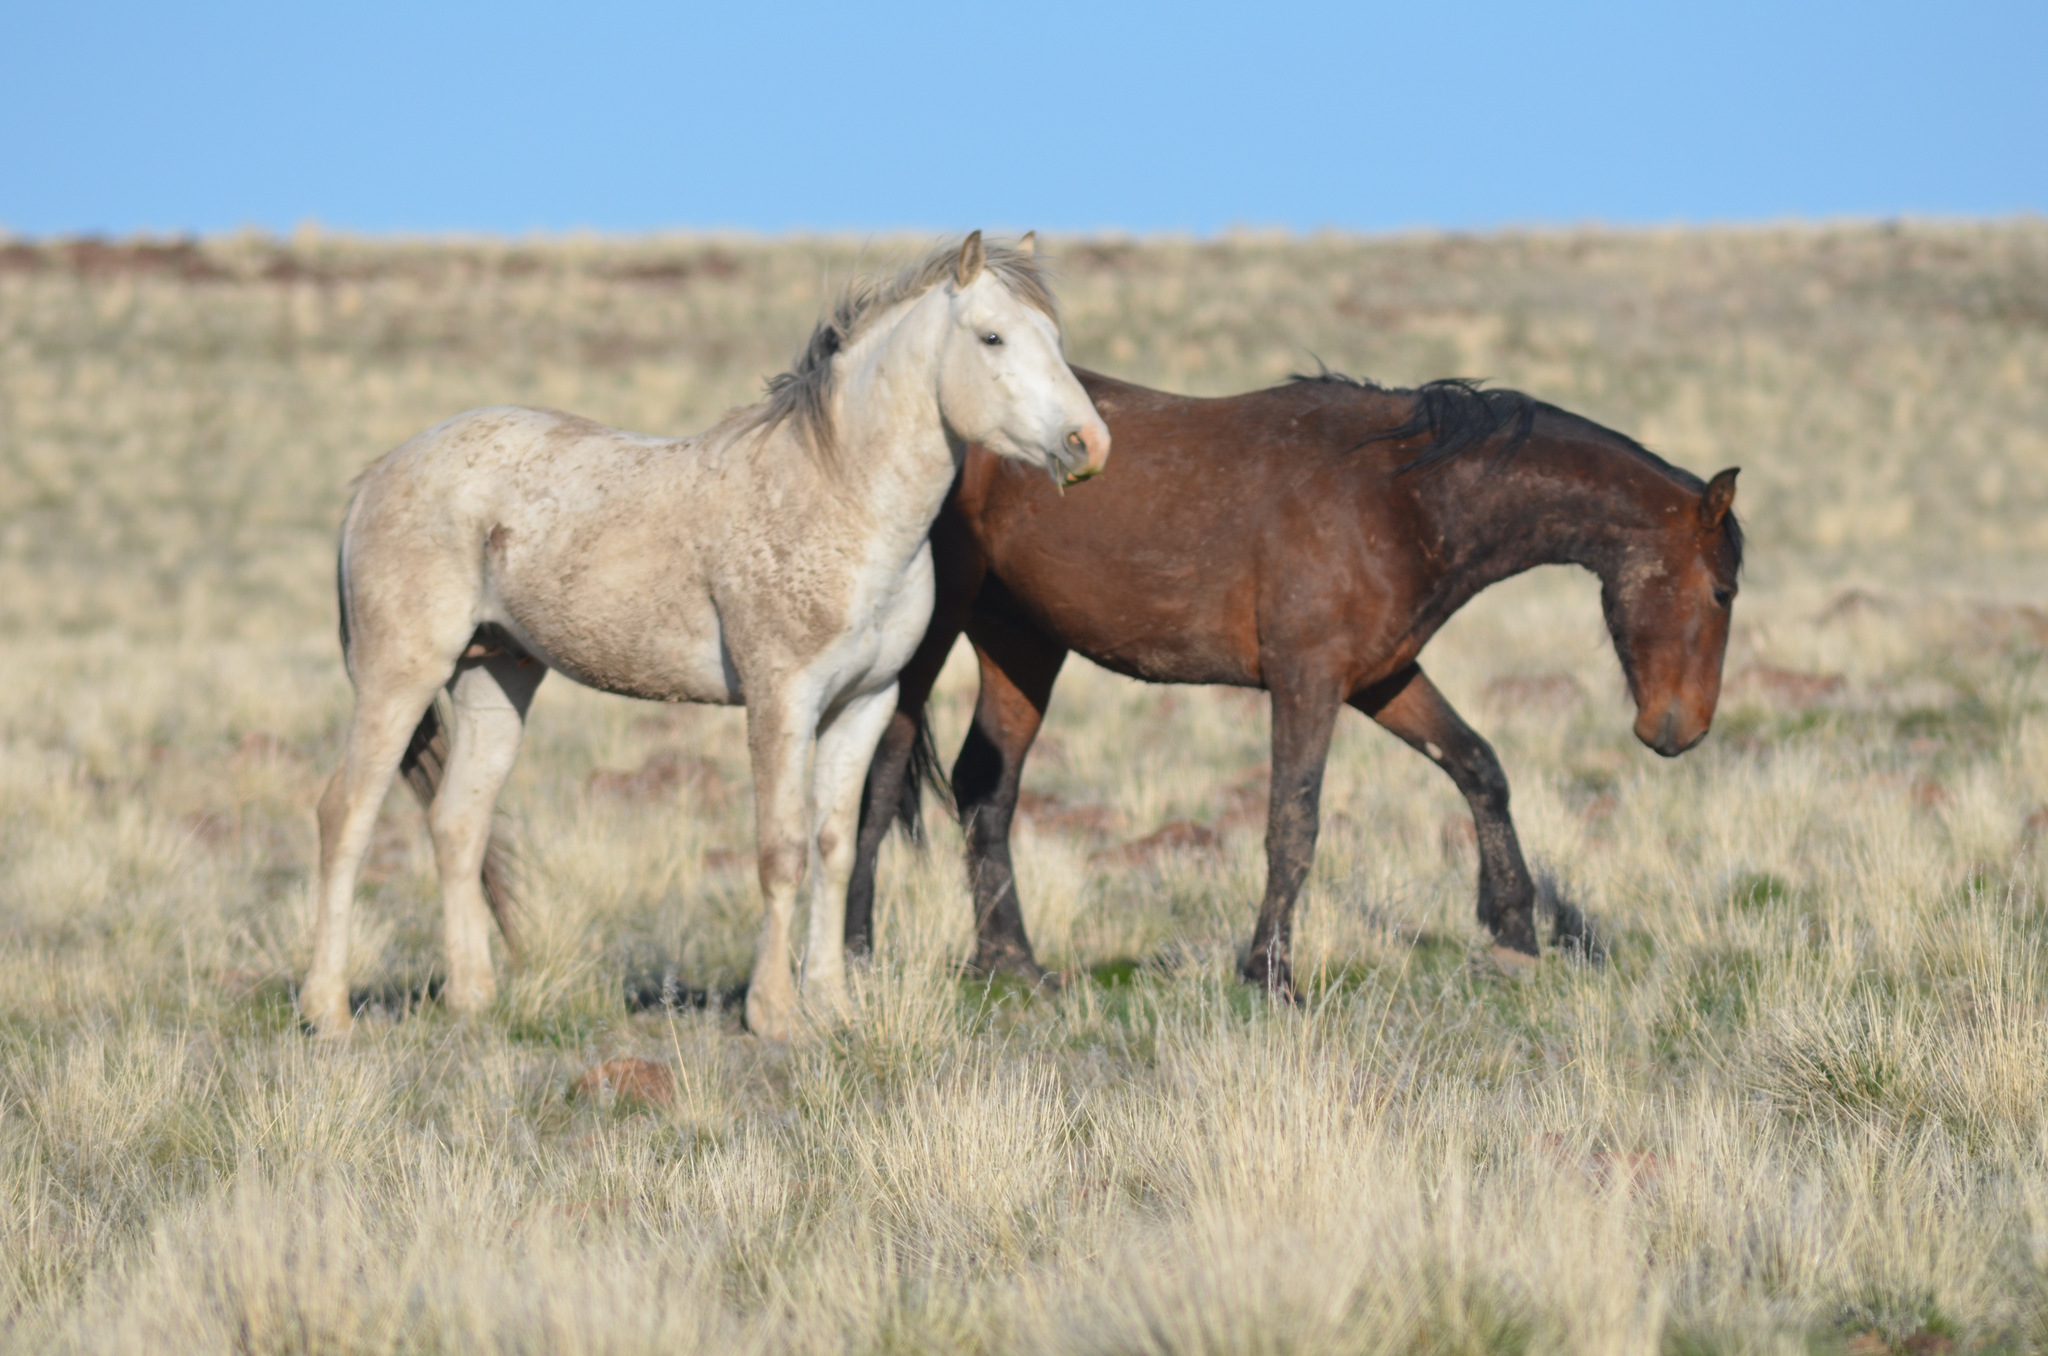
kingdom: Animalia
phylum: Chordata
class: Mammalia
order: Perissodactyla
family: Equidae
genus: Equus
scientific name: Equus caballus
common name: Horse
